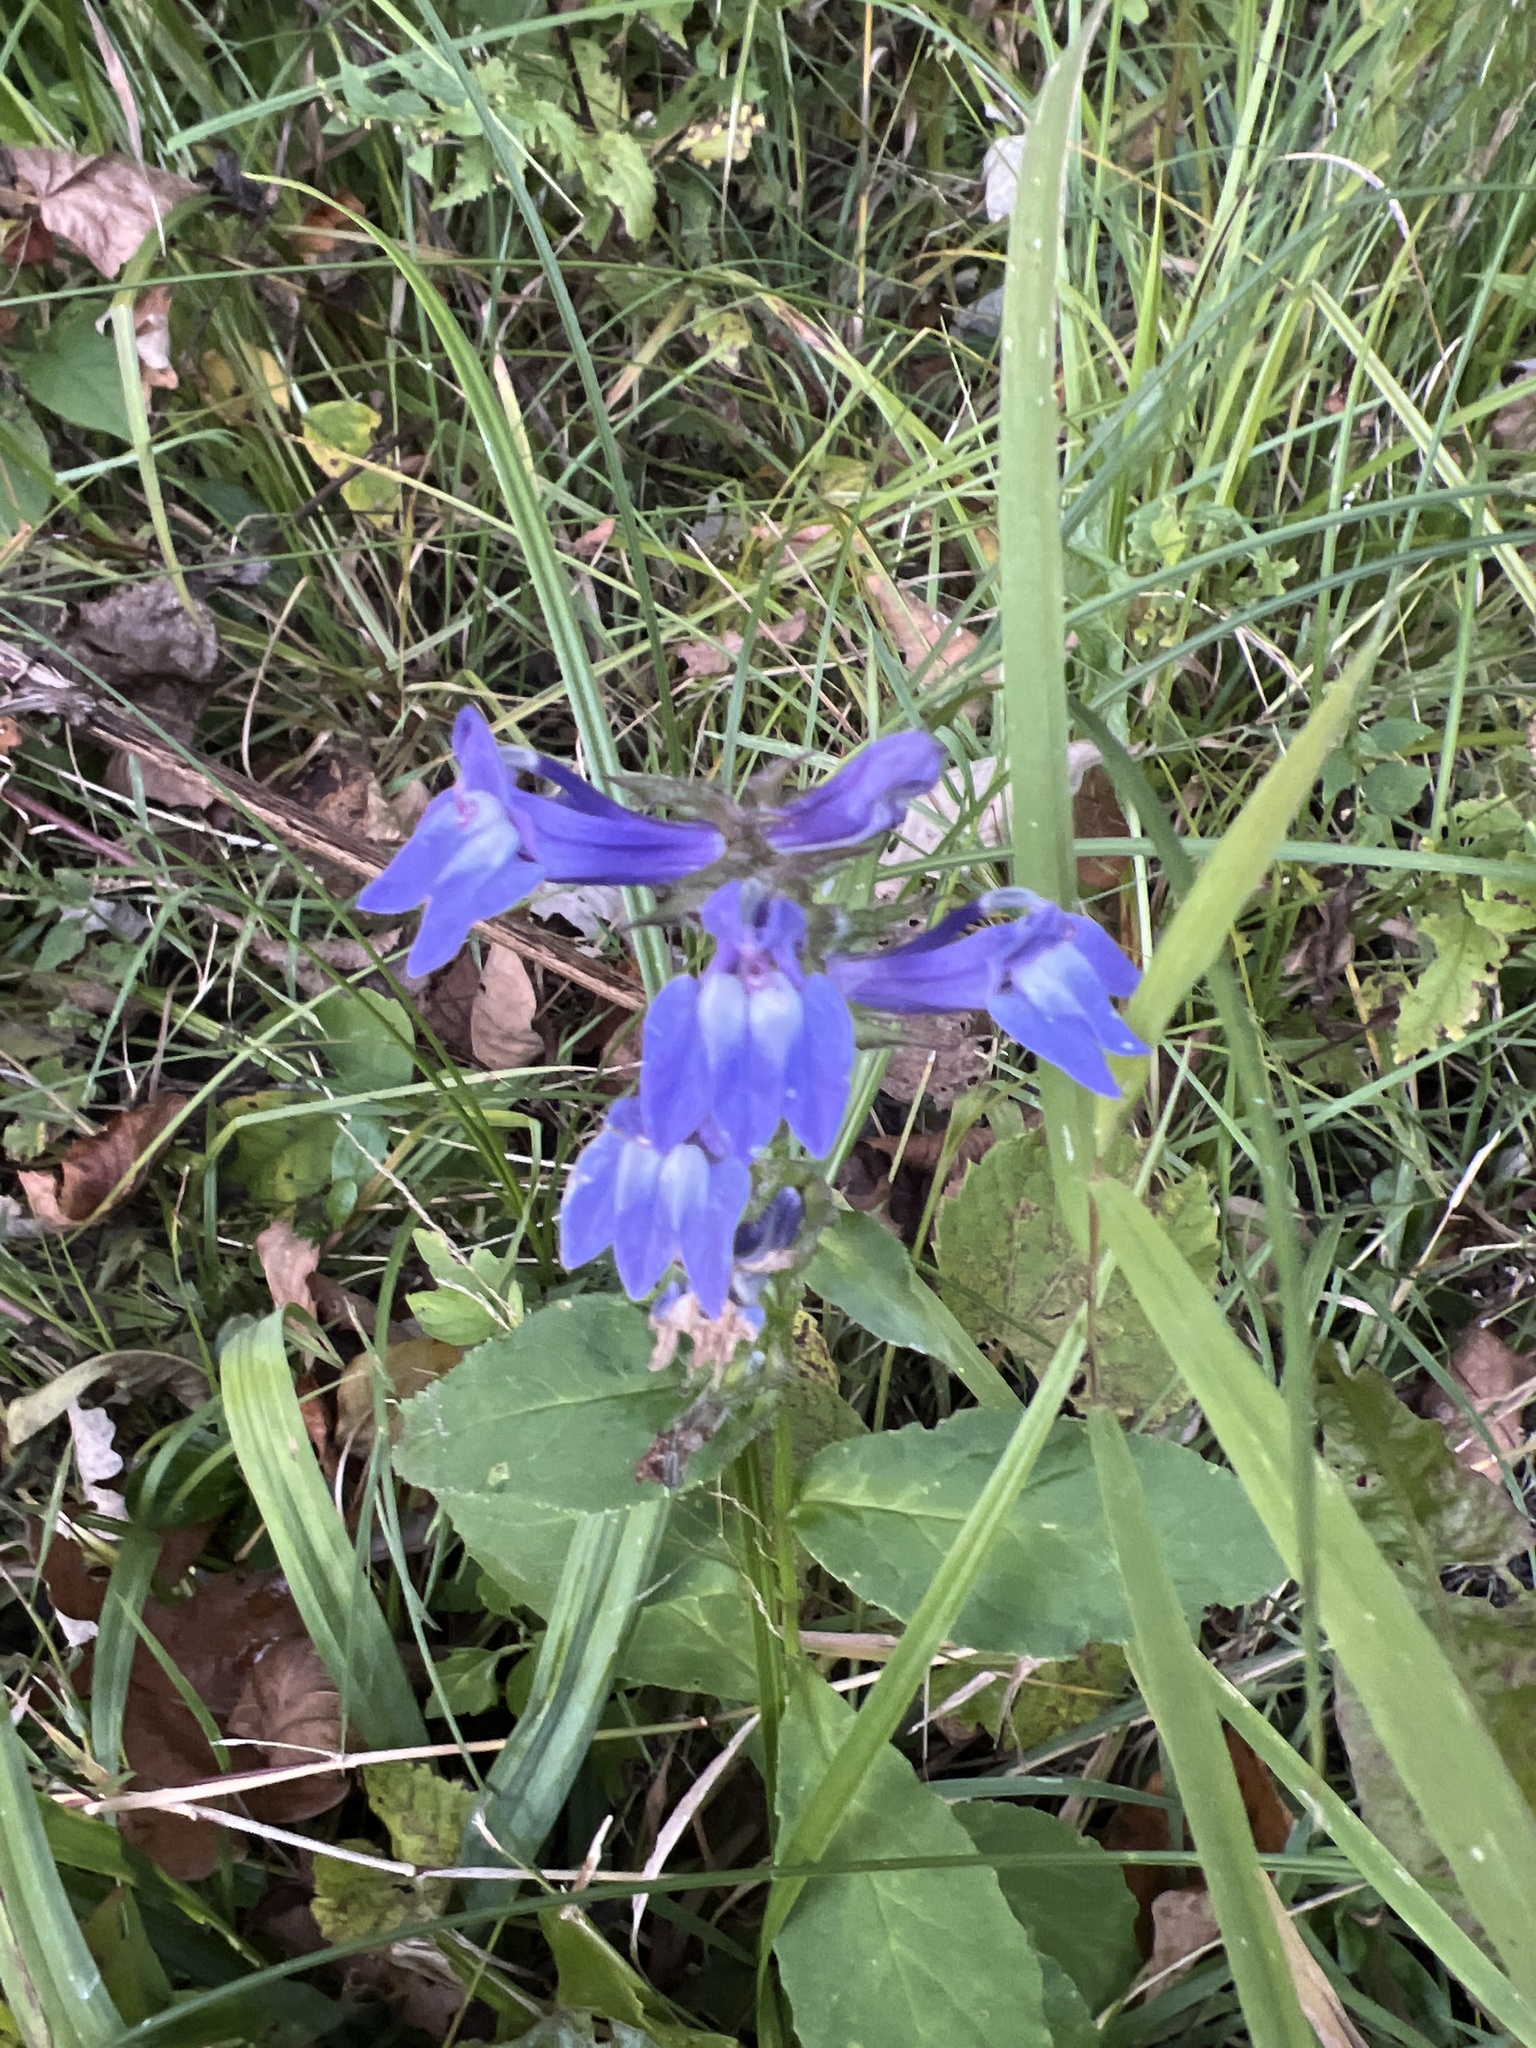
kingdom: Plantae
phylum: Tracheophyta
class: Magnoliopsida
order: Asterales
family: Campanulaceae
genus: Lobelia
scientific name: Lobelia siphilitica
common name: Great lobelia
